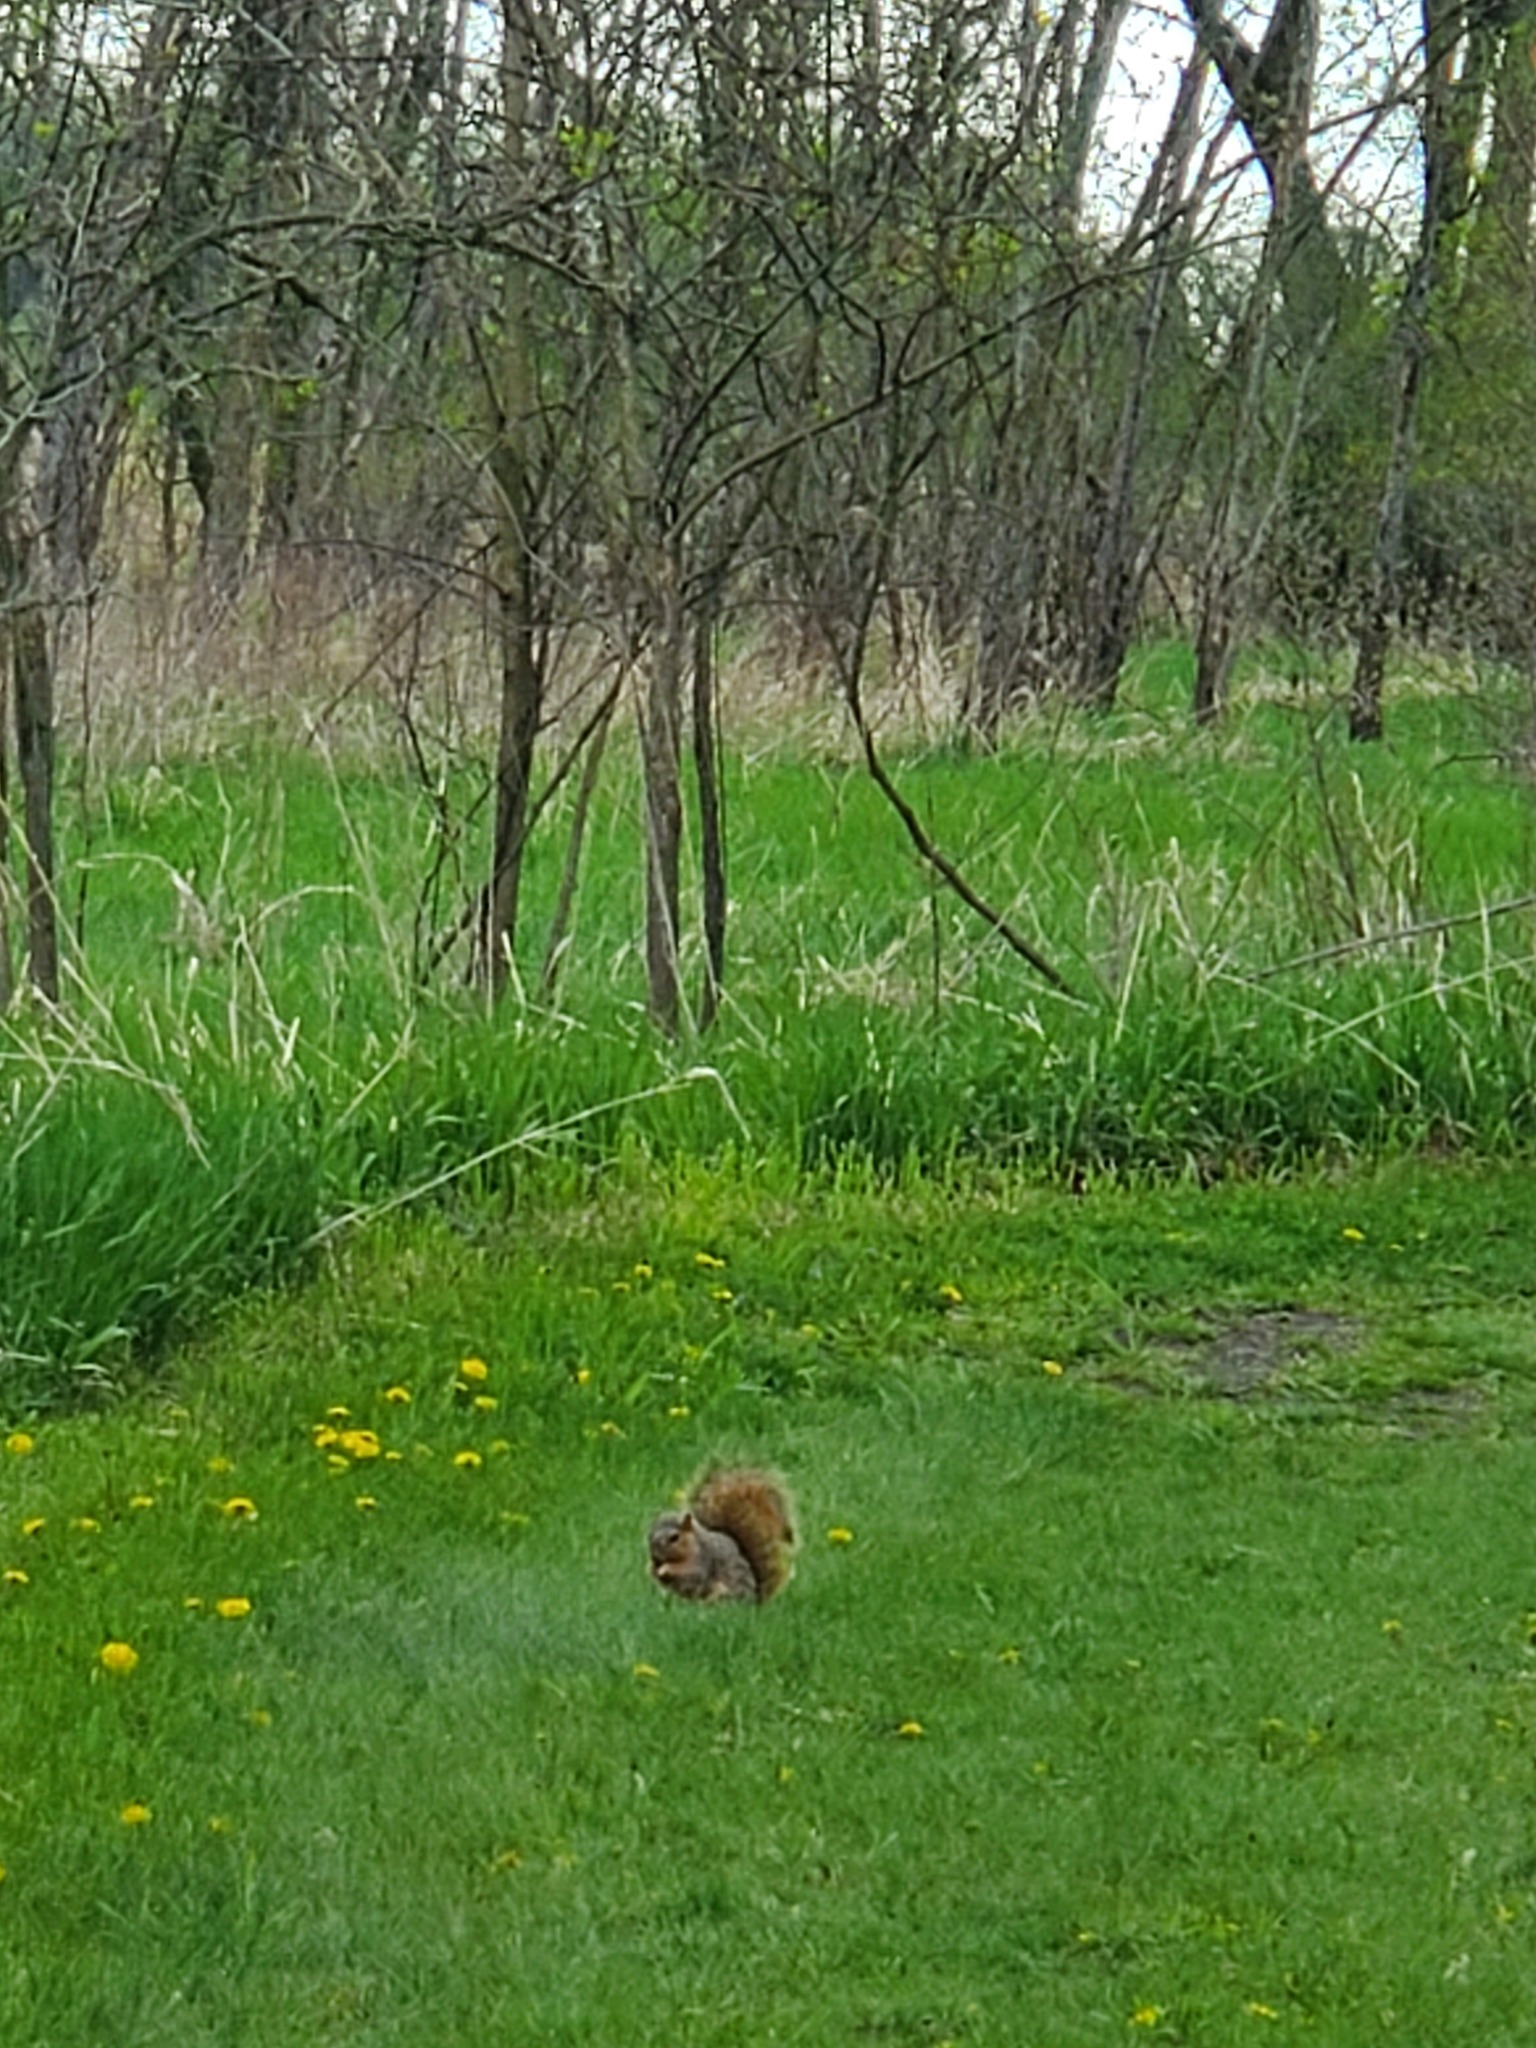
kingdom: Animalia
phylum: Chordata
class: Mammalia
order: Rodentia
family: Sciuridae
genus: Sciurus
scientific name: Sciurus niger
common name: Fox squirrel
